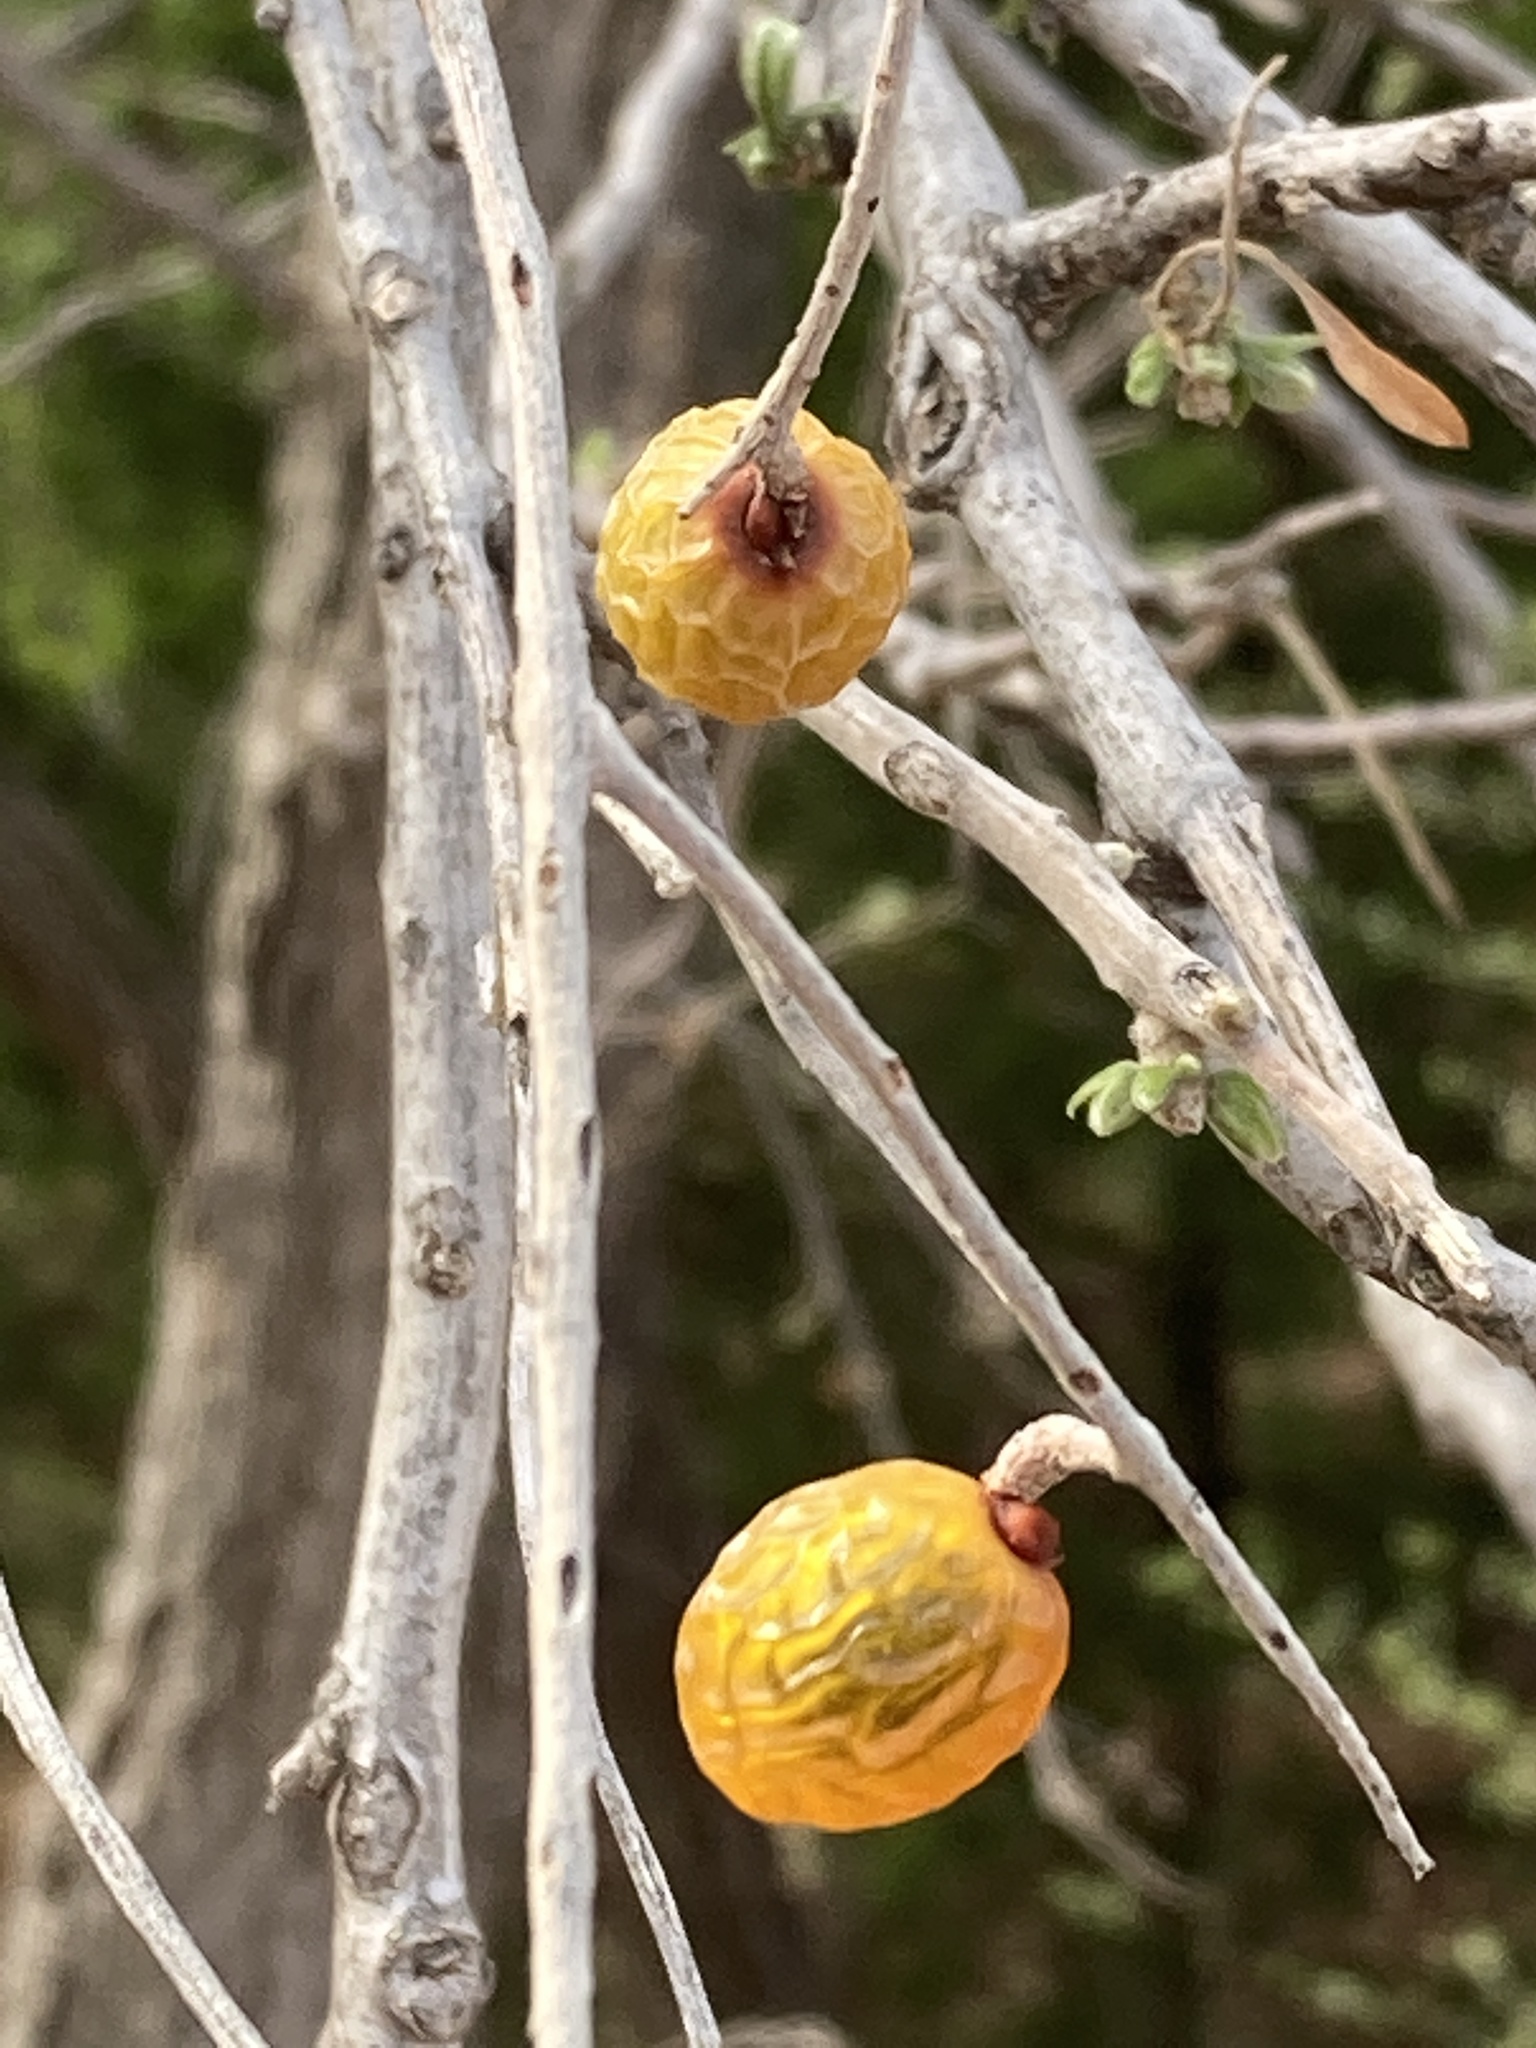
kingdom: Plantae
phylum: Tracheophyta
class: Magnoliopsida
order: Sapindales
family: Sapindaceae
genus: Sapindus
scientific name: Sapindus drummondii
